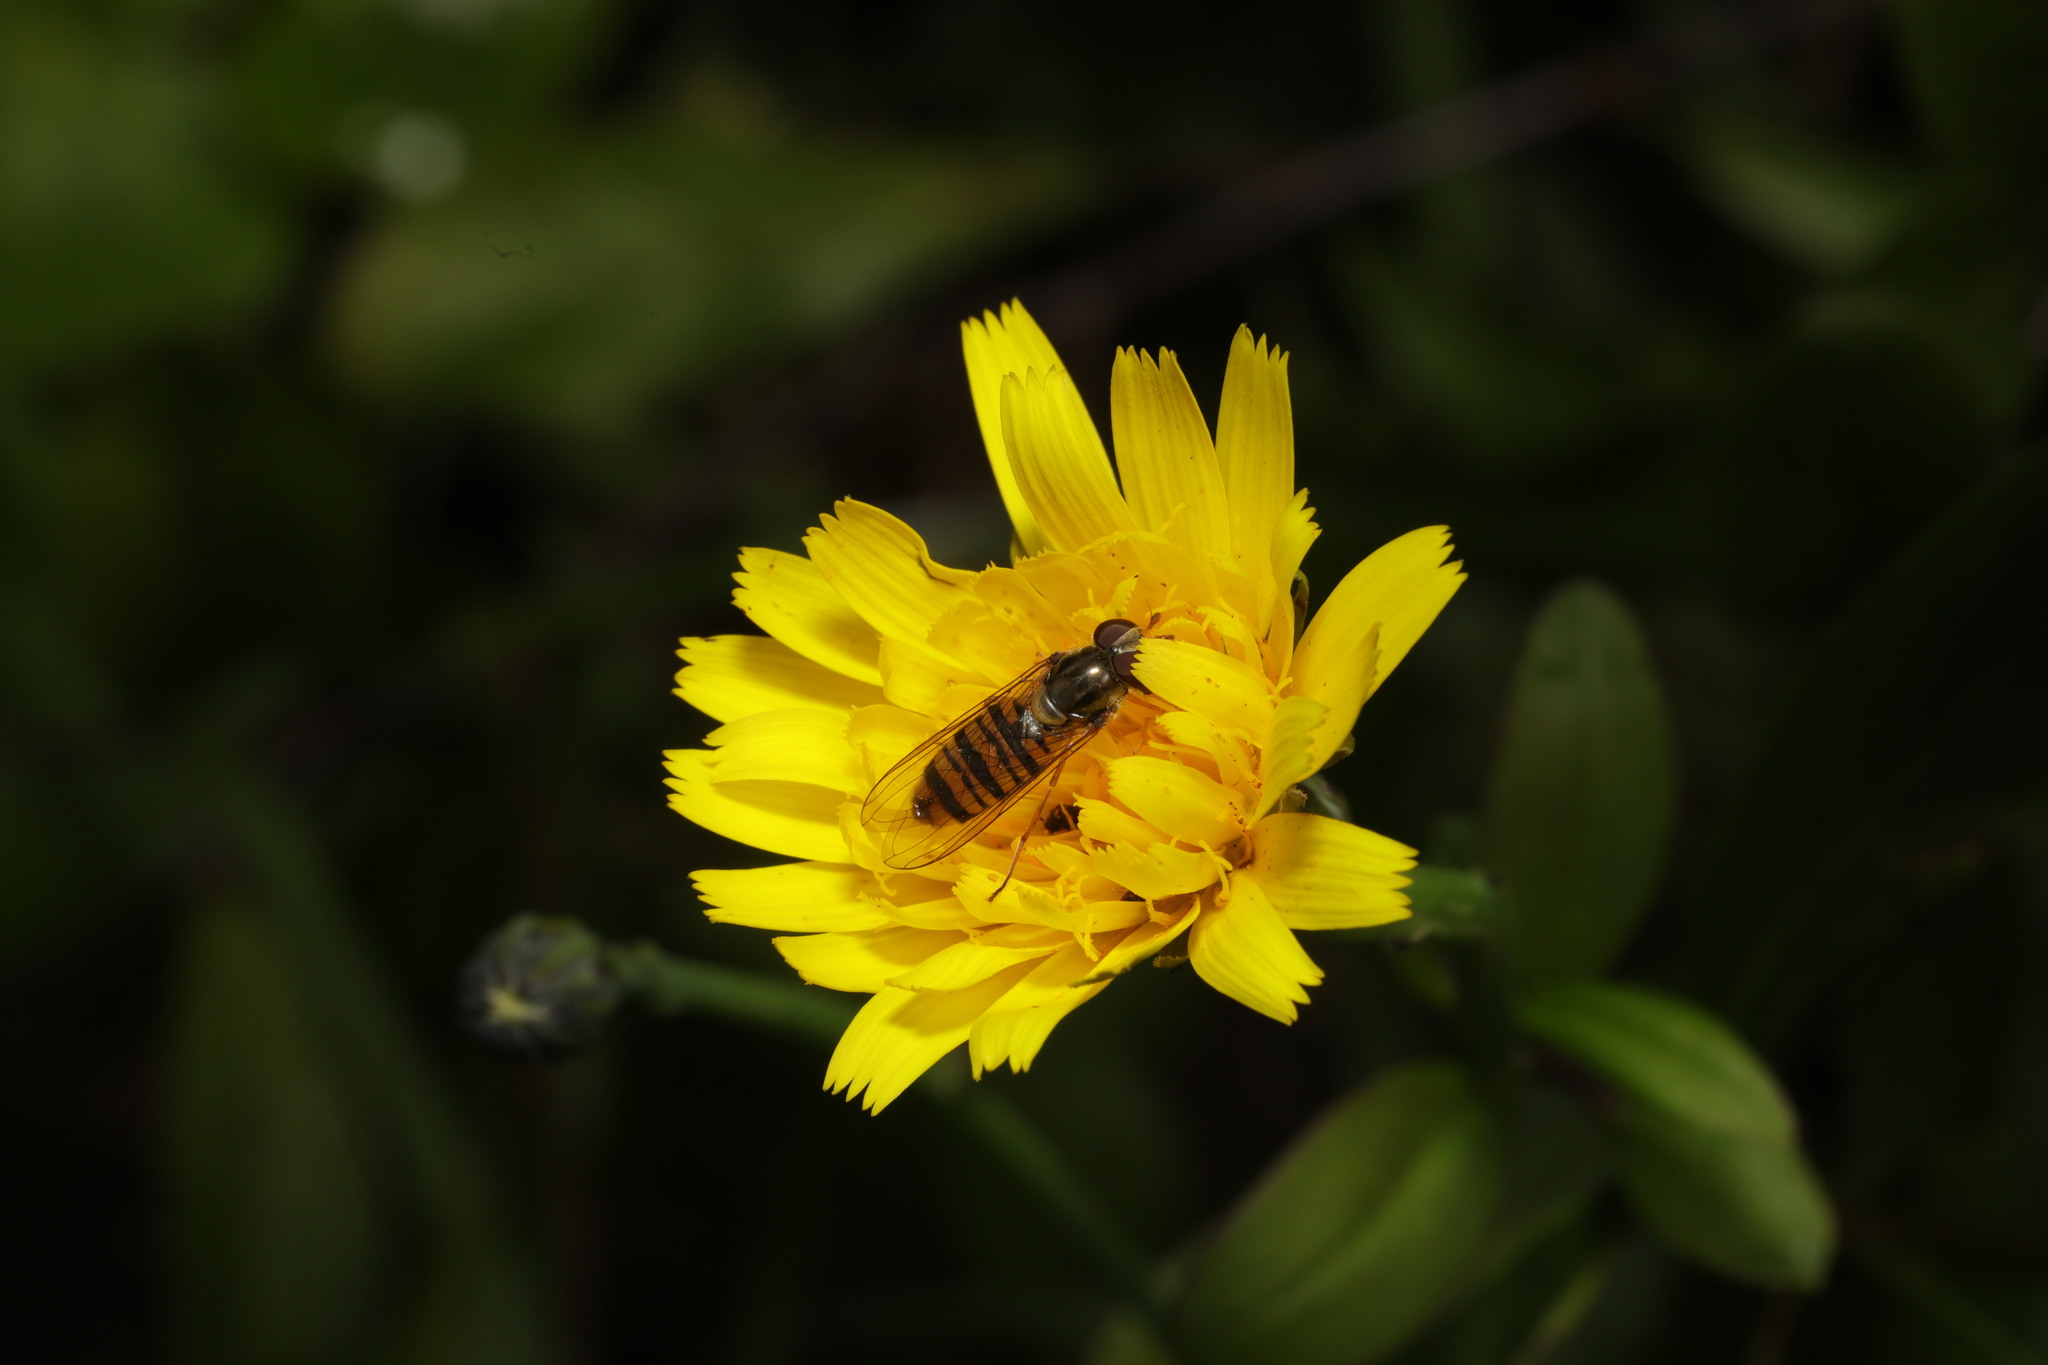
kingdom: Animalia
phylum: Arthropoda
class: Insecta
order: Diptera
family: Syrphidae
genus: Episyrphus
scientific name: Episyrphus balteatus
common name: Marmalade hoverfly
